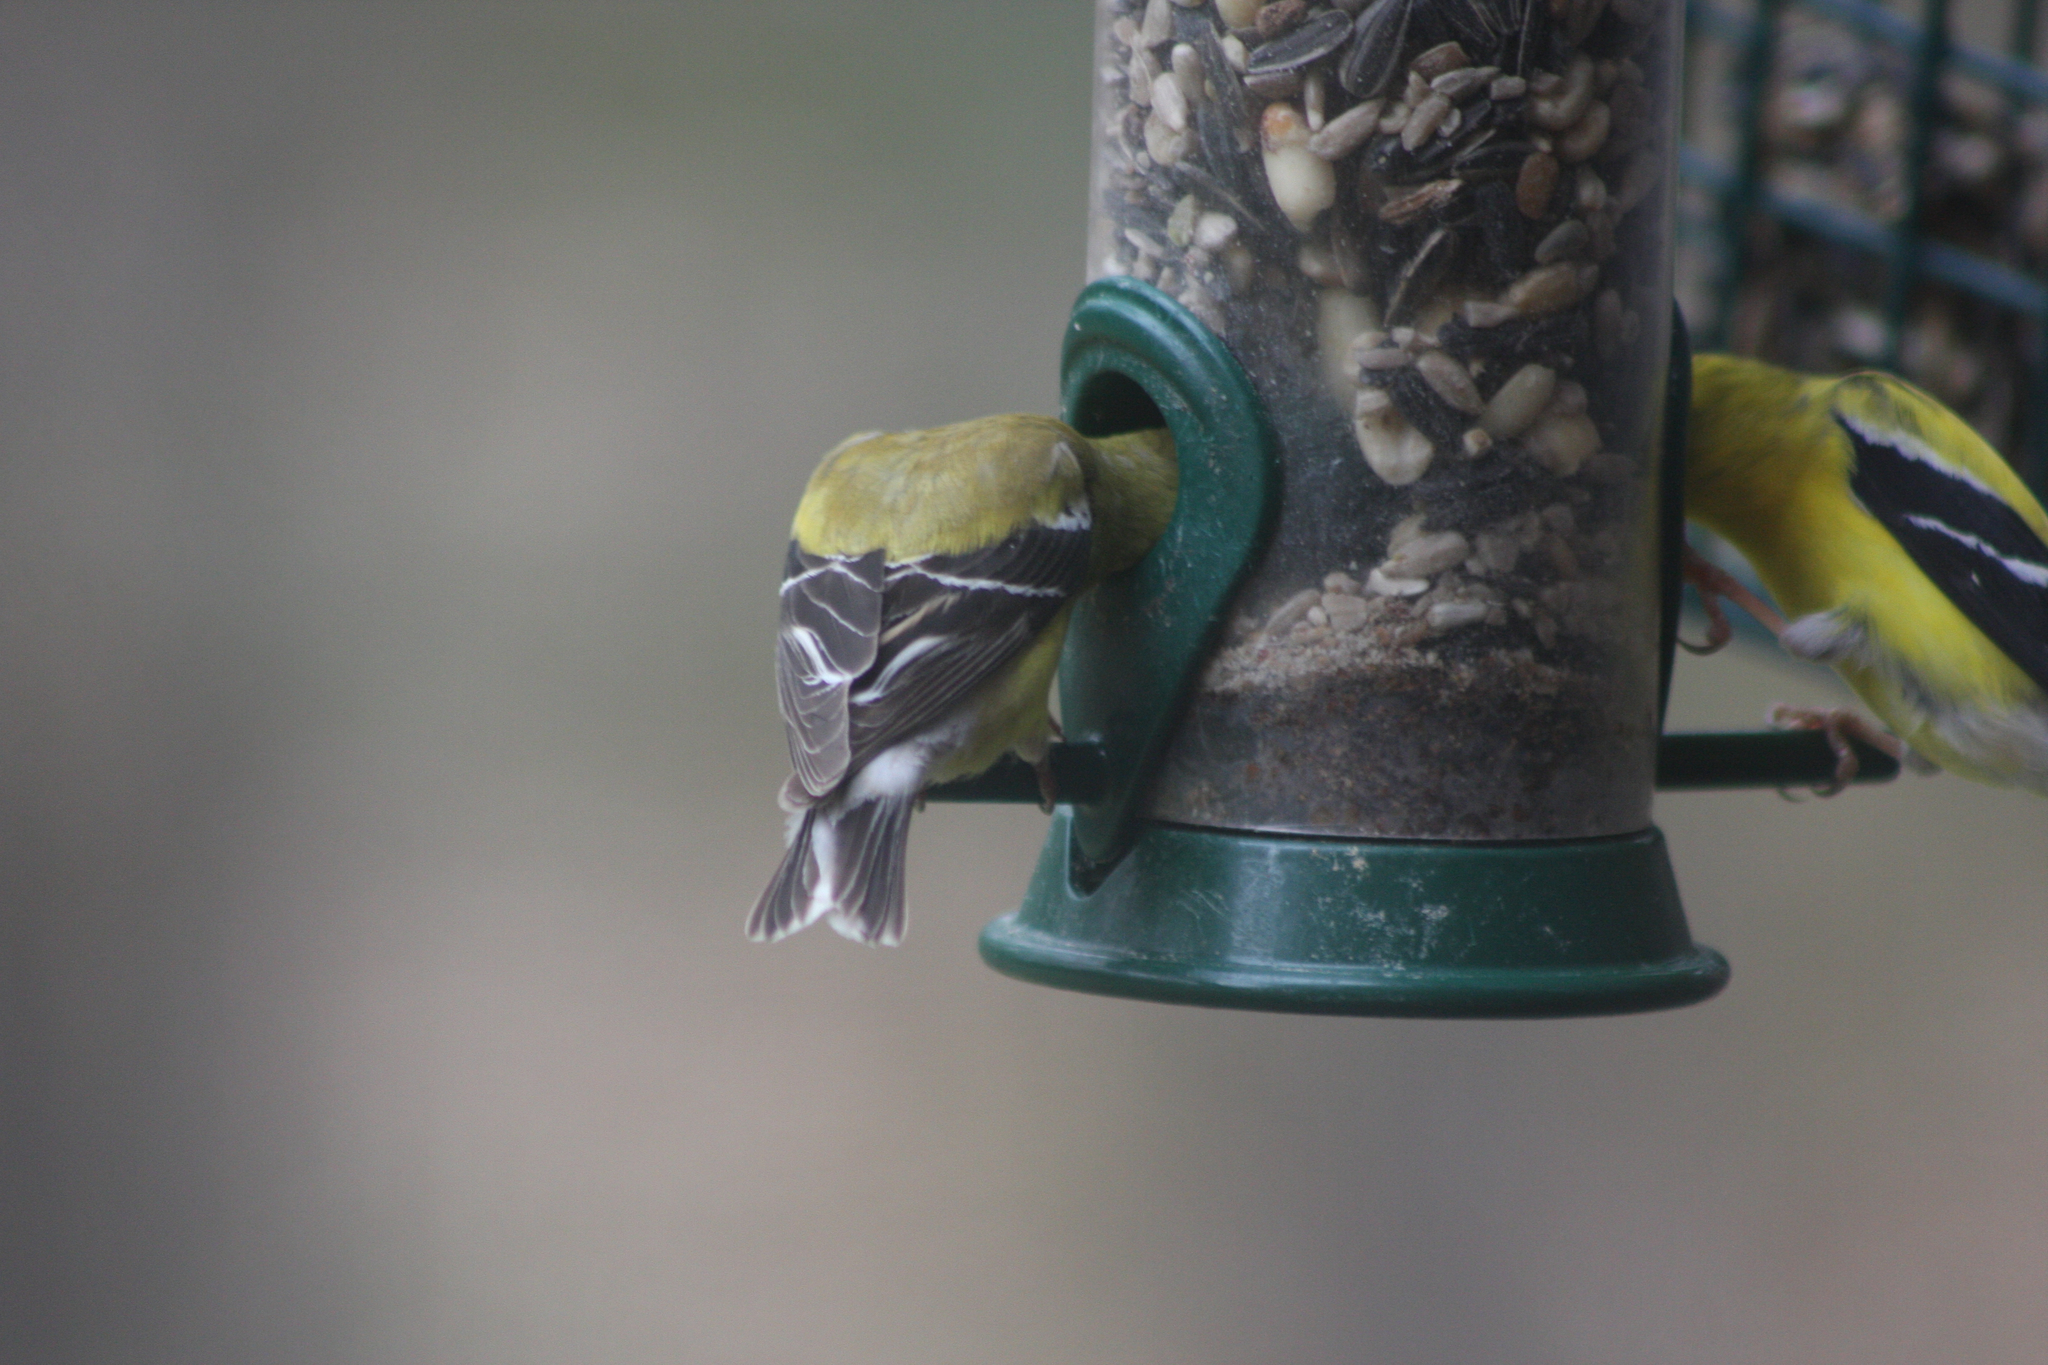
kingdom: Animalia
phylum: Chordata
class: Aves
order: Passeriformes
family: Fringillidae
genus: Spinus
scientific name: Spinus tristis
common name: American goldfinch
